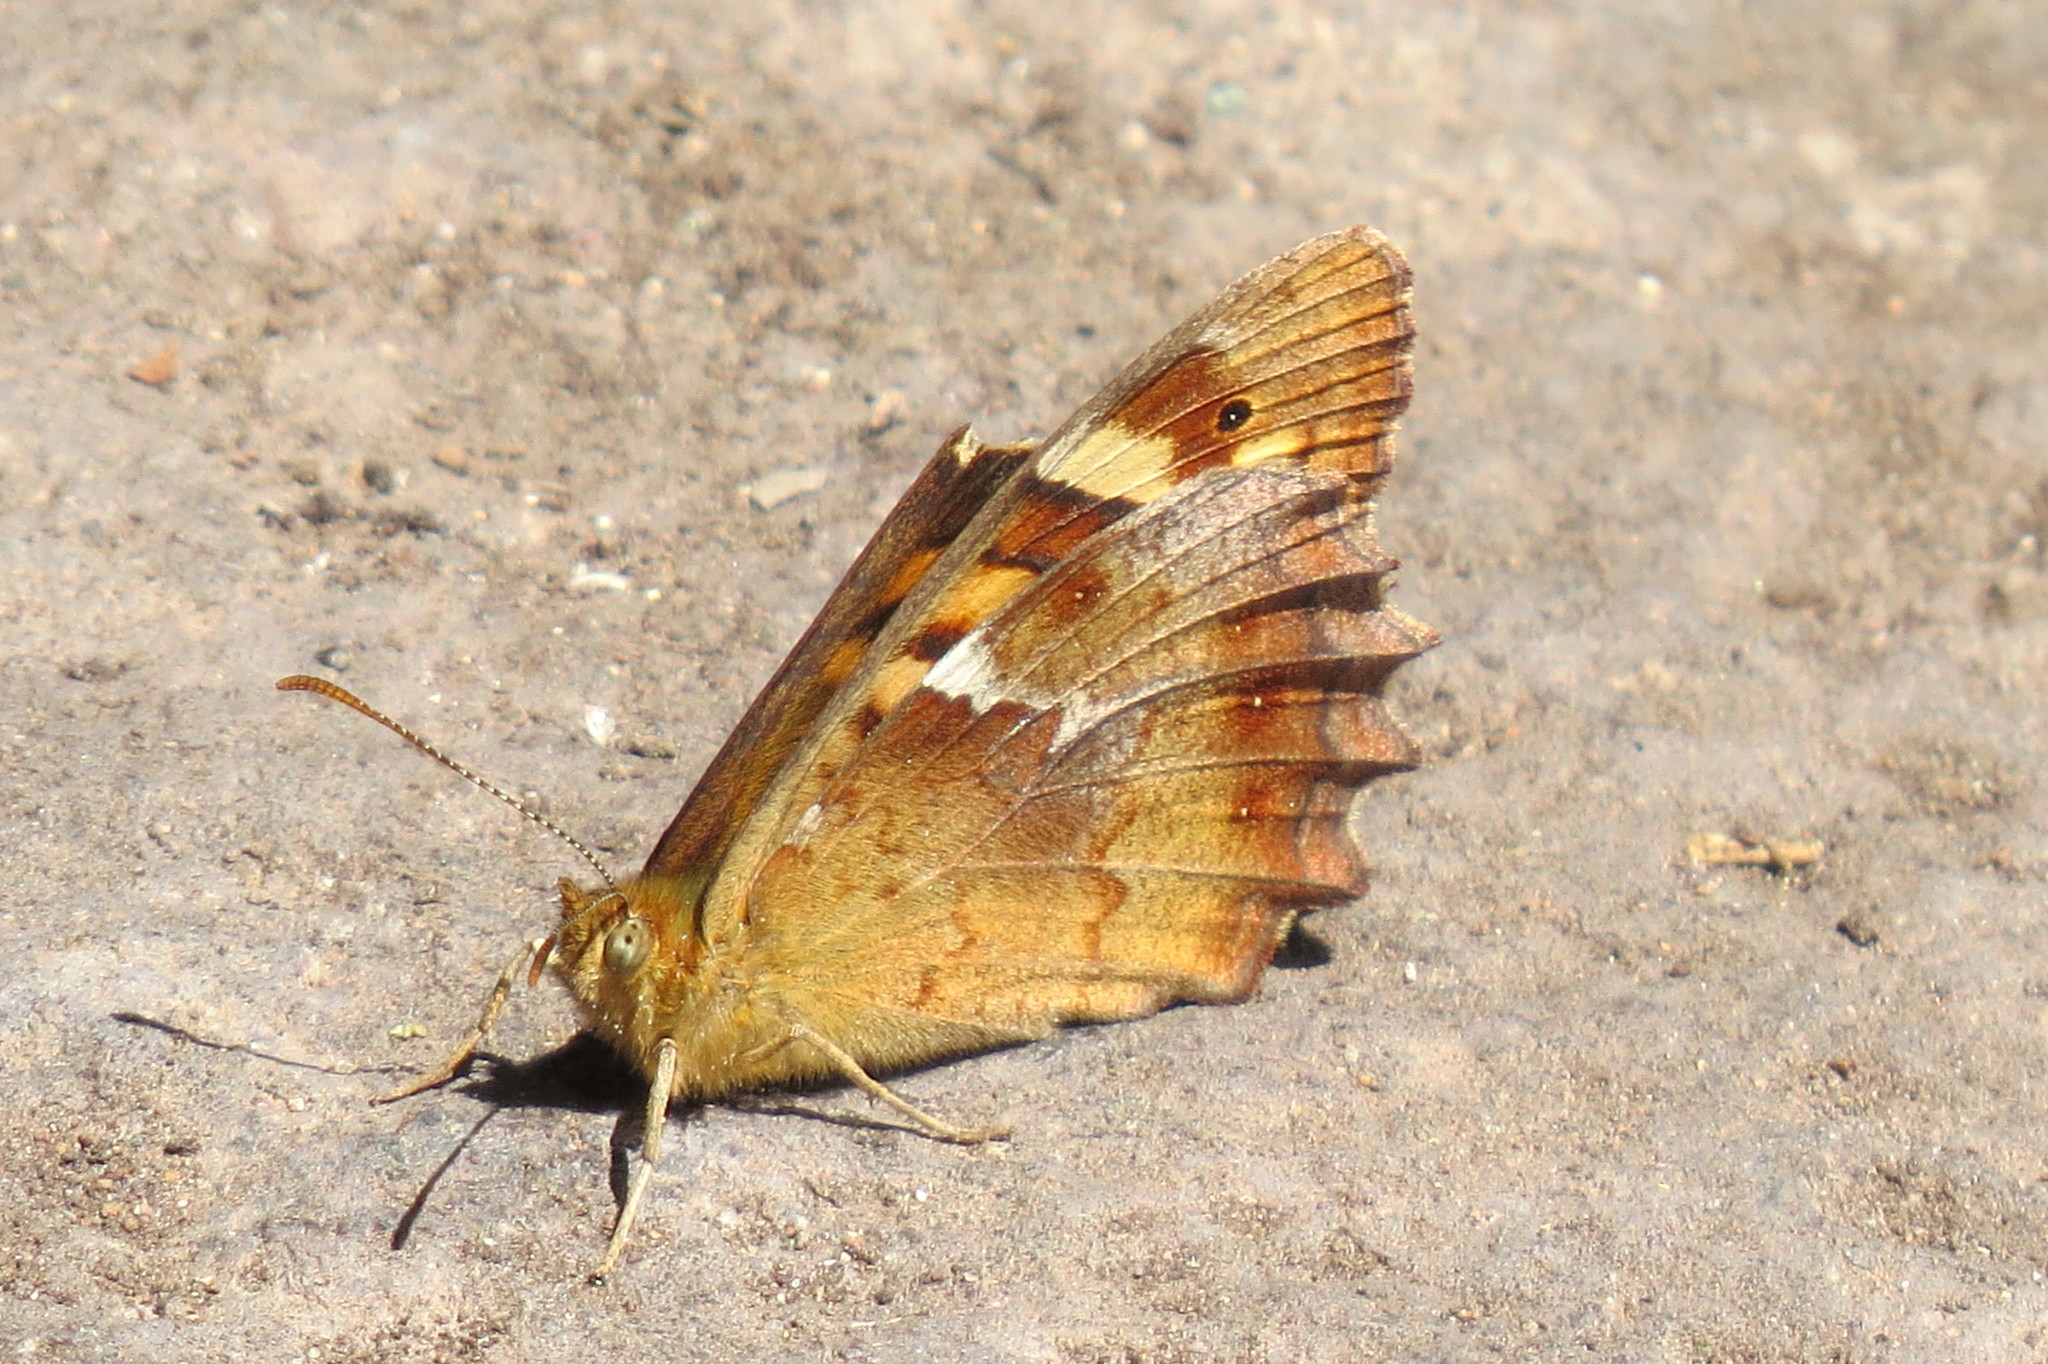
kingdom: Animalia
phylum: Arthropoda
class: Insecta
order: Lepidoptera
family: Nymphalidae
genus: Pararge
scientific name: Pararge aegeria
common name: Speckled wood
